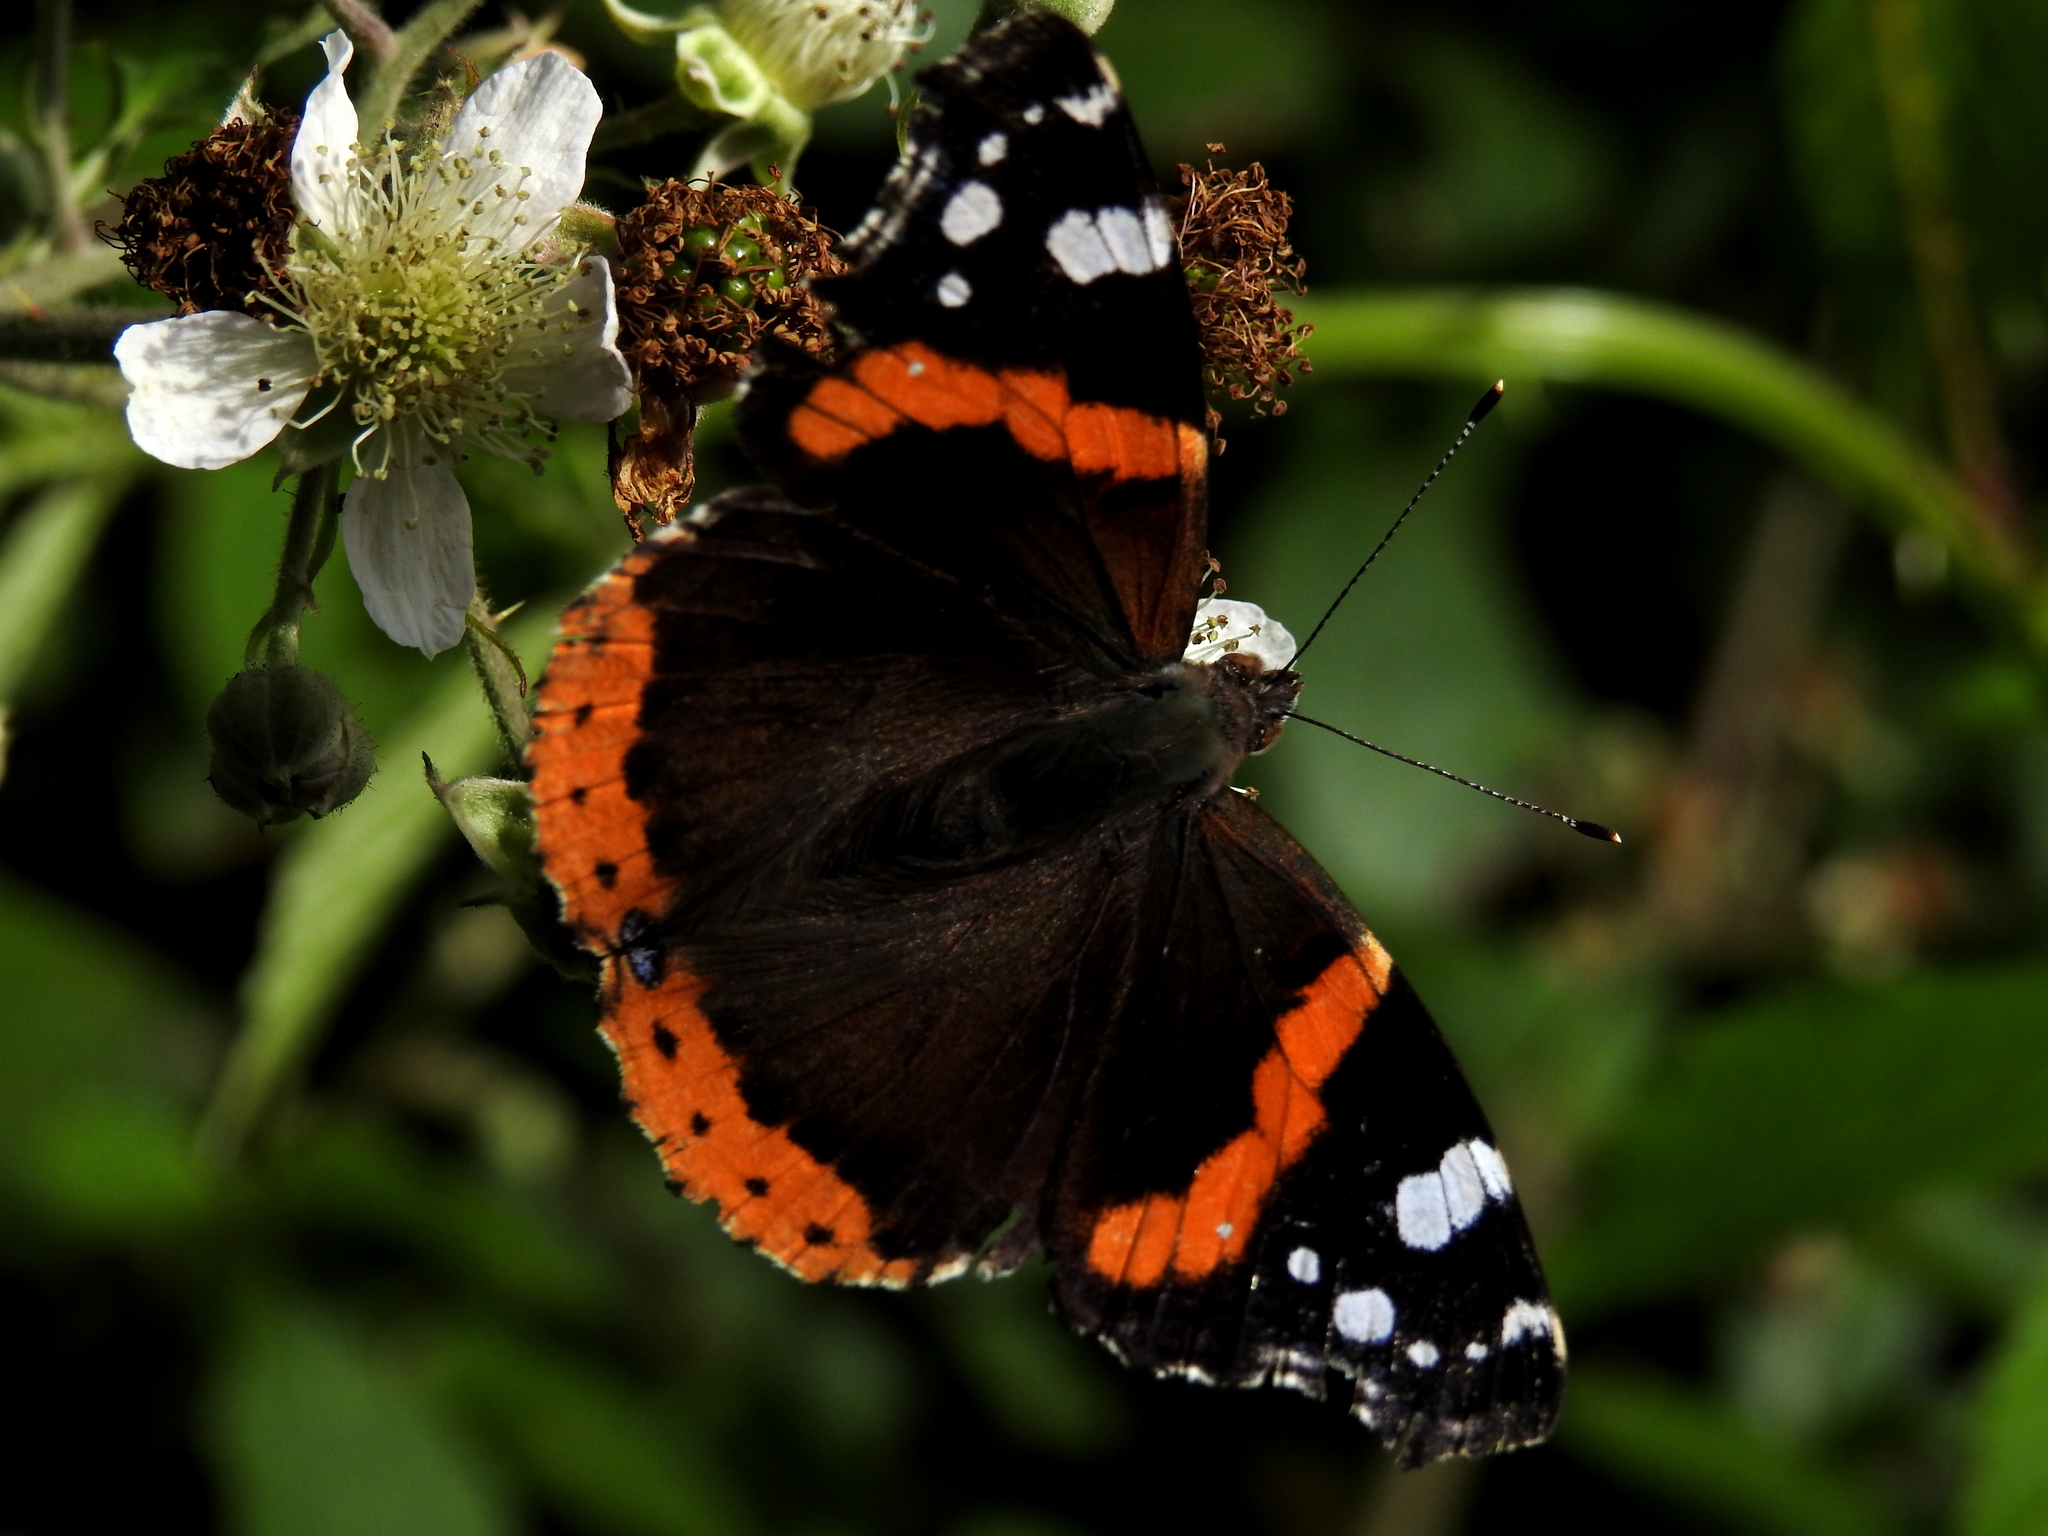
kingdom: Animalia
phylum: Arthropoda
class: Insecta
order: Lepidoptera
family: Nymphalidae
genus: Vanessa
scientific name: Vanessa atalanta
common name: Red admiral
